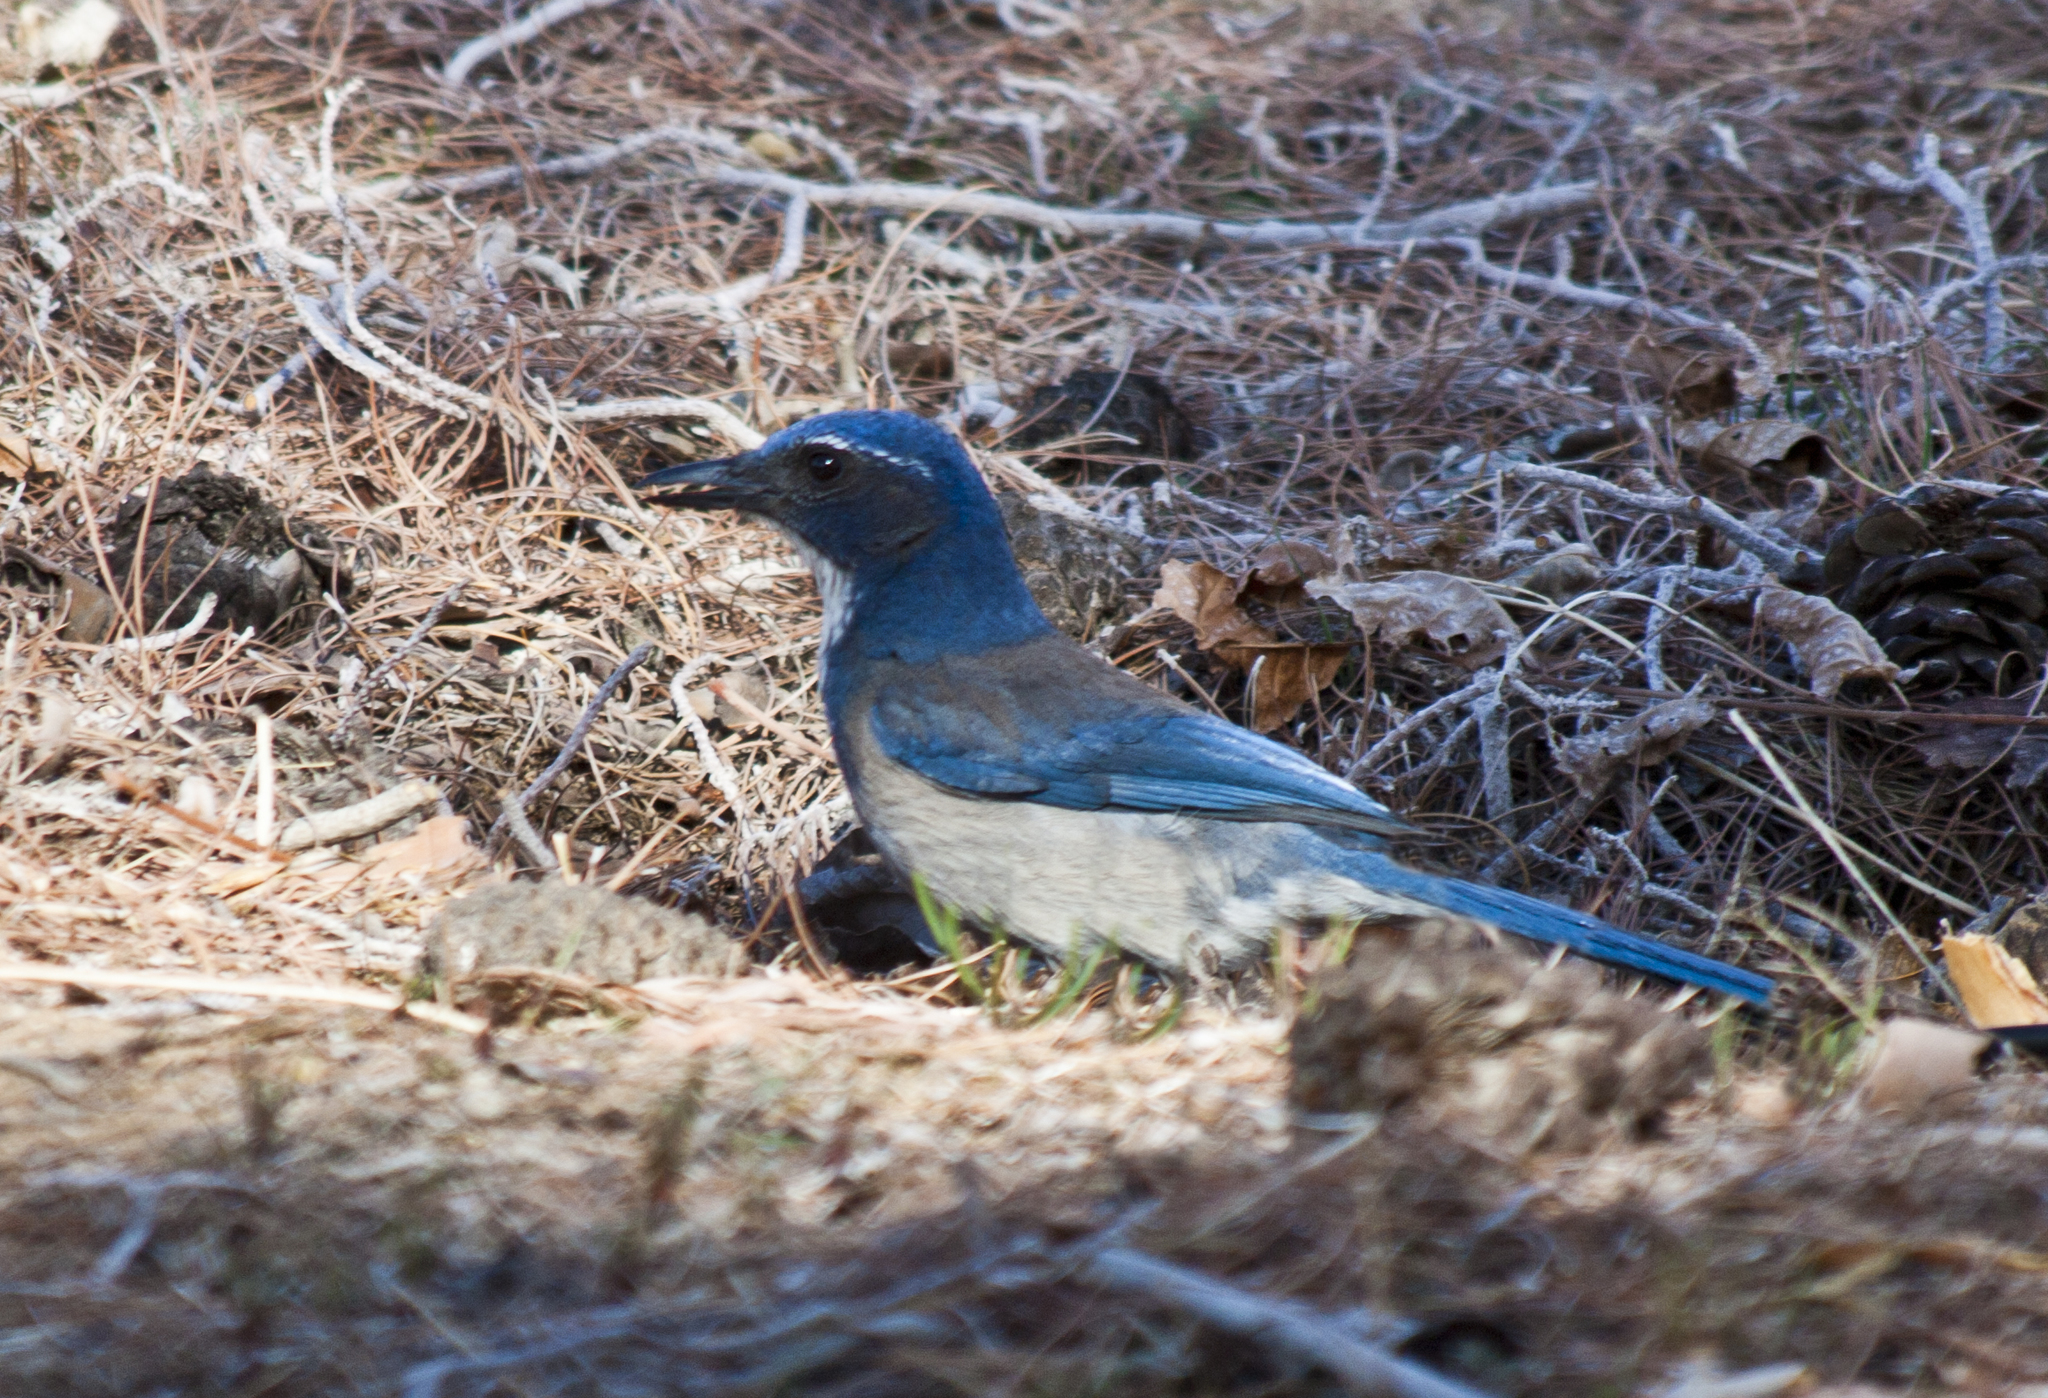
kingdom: Animalia
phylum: Chordata
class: Aves
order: Passeriformes
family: Corvidae
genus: Aphelocoma
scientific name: Aphelocoma californica
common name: California scrub-jay
